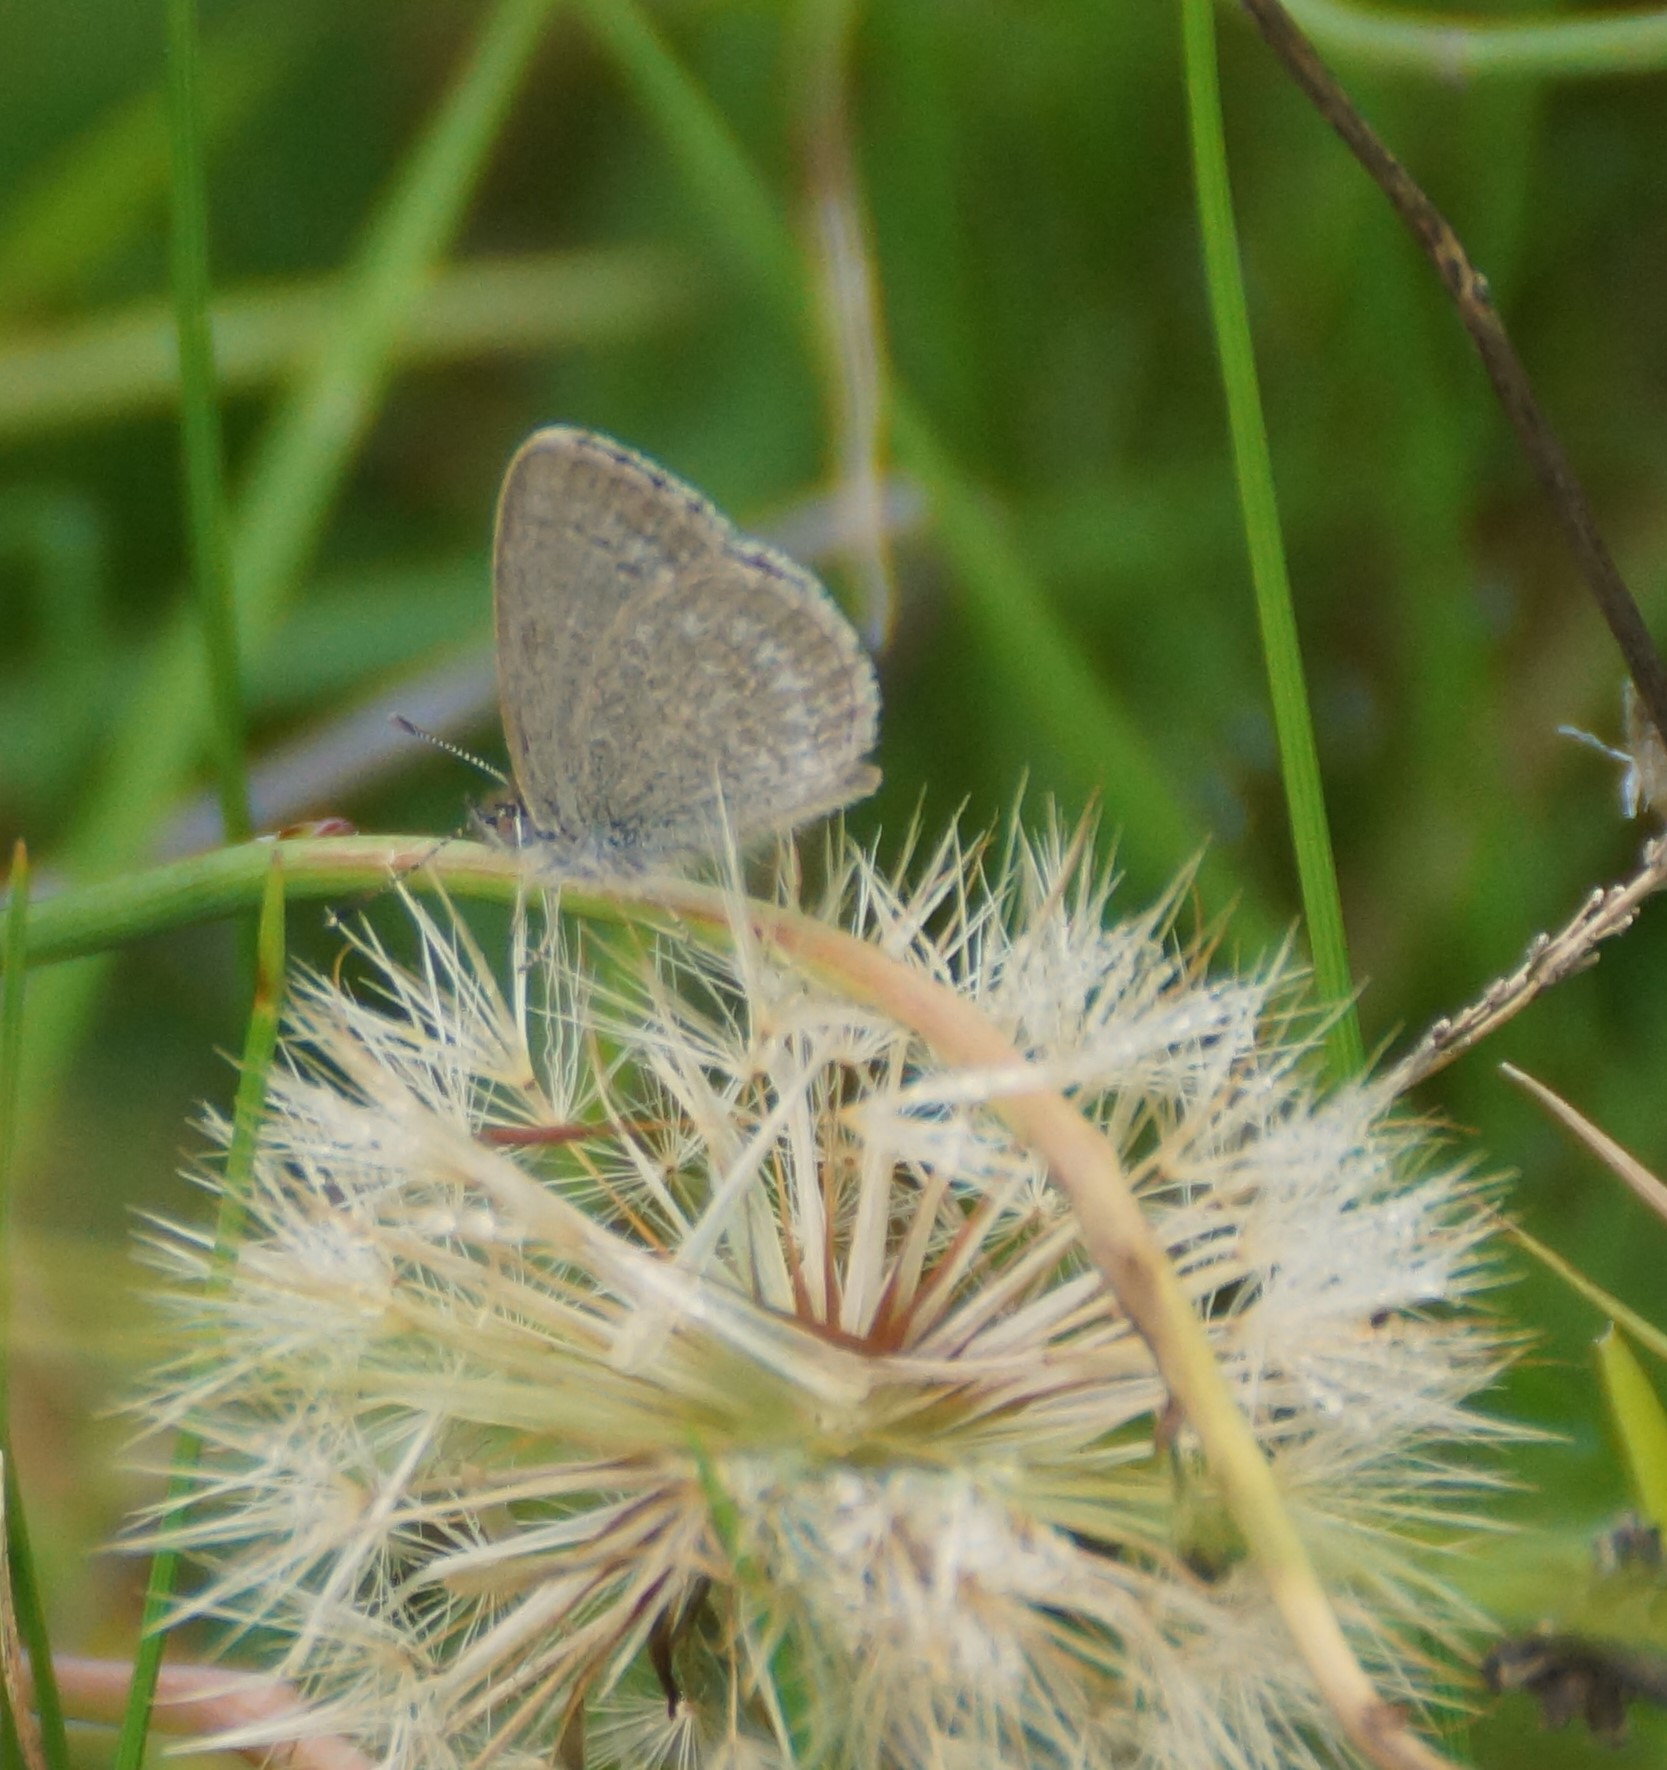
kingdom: Animalia
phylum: Arthropoda
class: Insecta
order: Lepidoptera
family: Lycaenidae
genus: Zizina
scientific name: Zizina labradus
